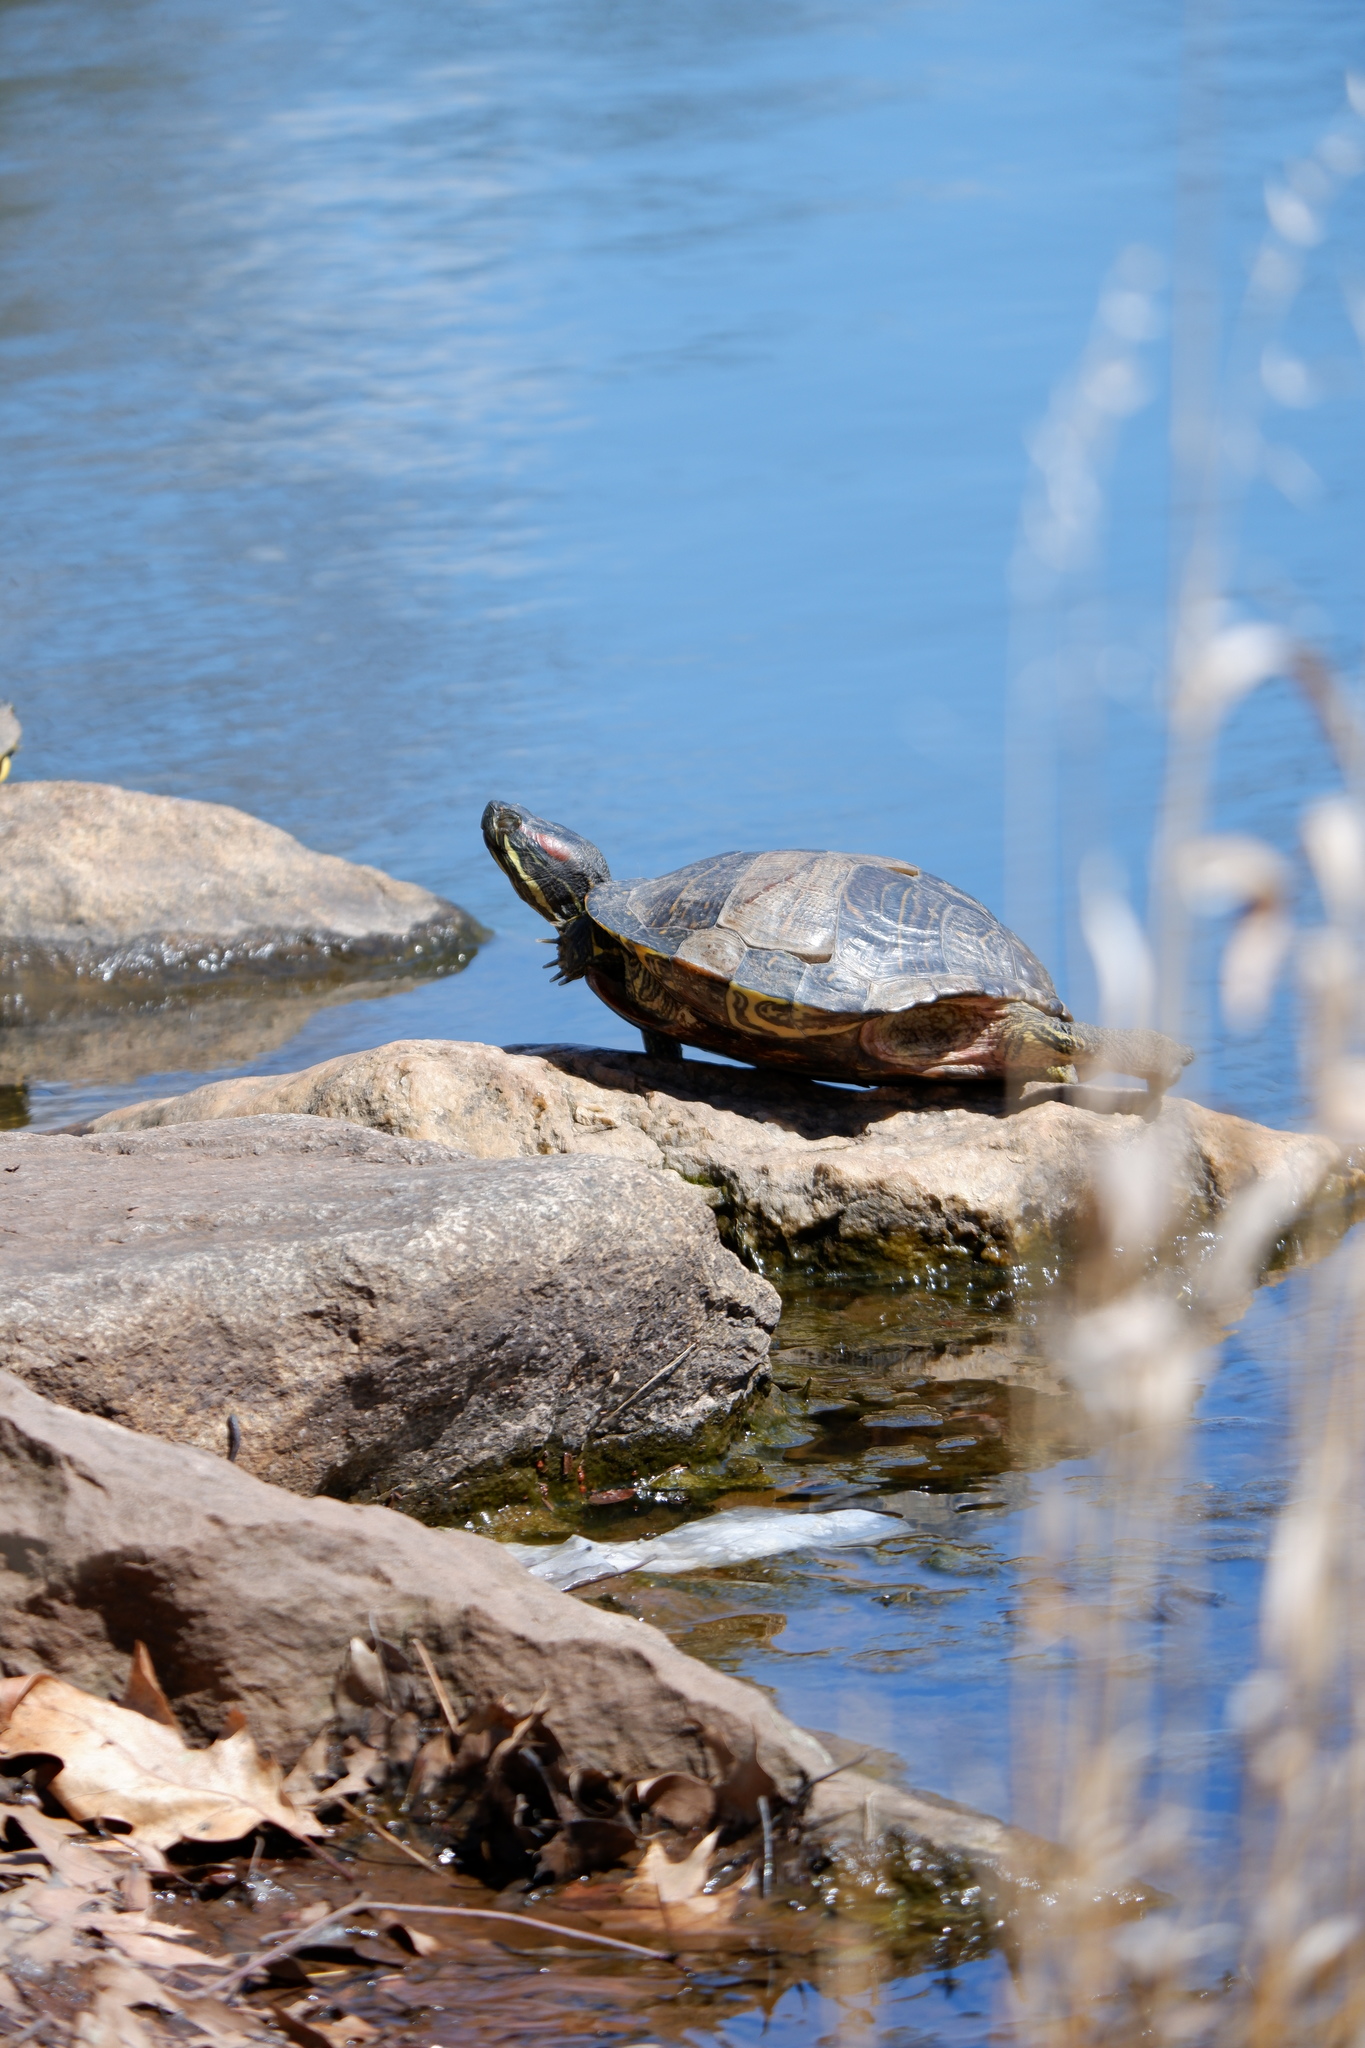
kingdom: Animalia
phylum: Chordata
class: Testudines
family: Emydidae
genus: Trachemys
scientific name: Trachemys scripta
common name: Slider
